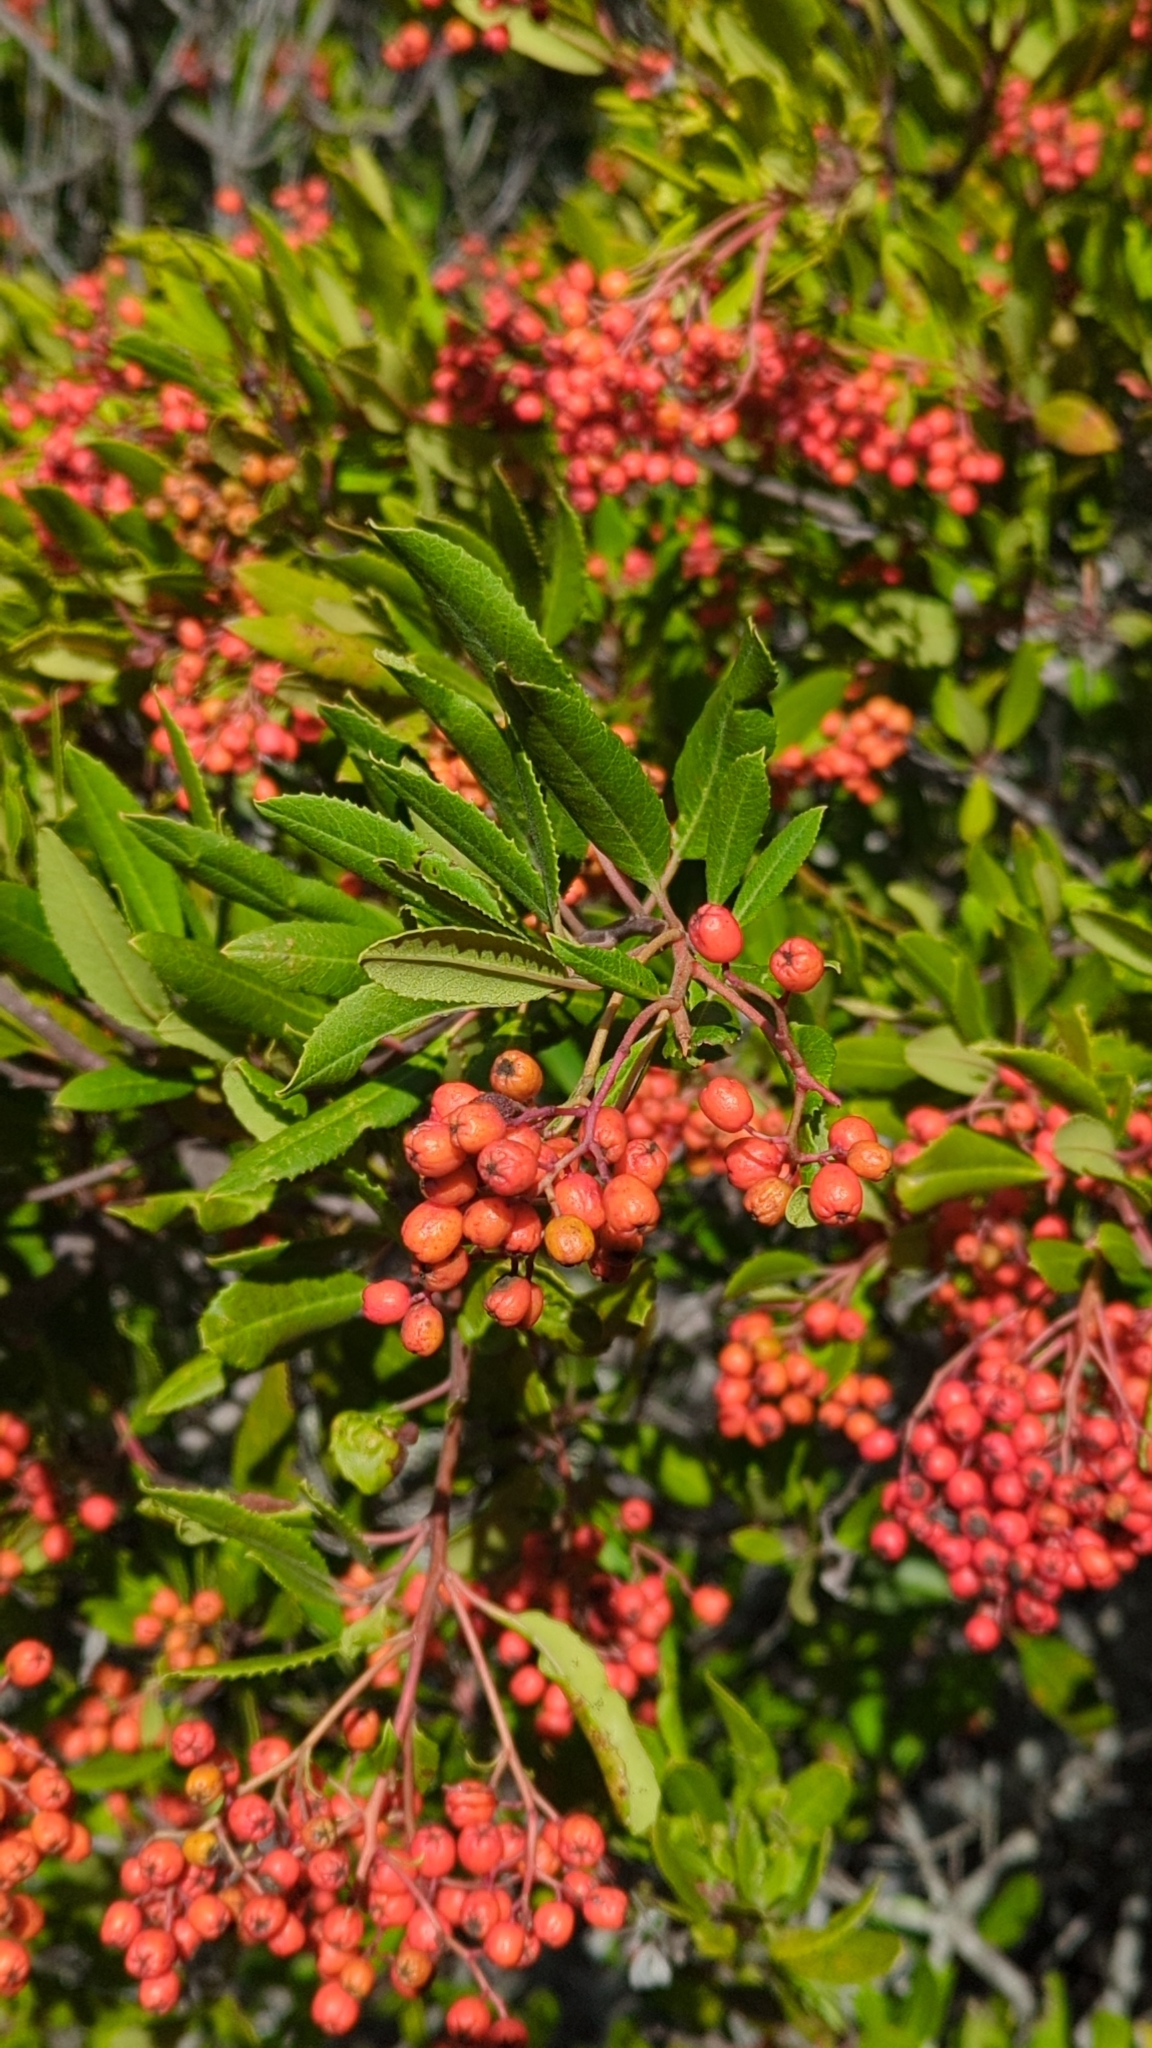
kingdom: Plantae
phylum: Tracheophyta
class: Magnoliopsida
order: Rosales
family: Rosaceae
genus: Heteromeles
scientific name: Heteromeles arbutifolia
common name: California-holly
